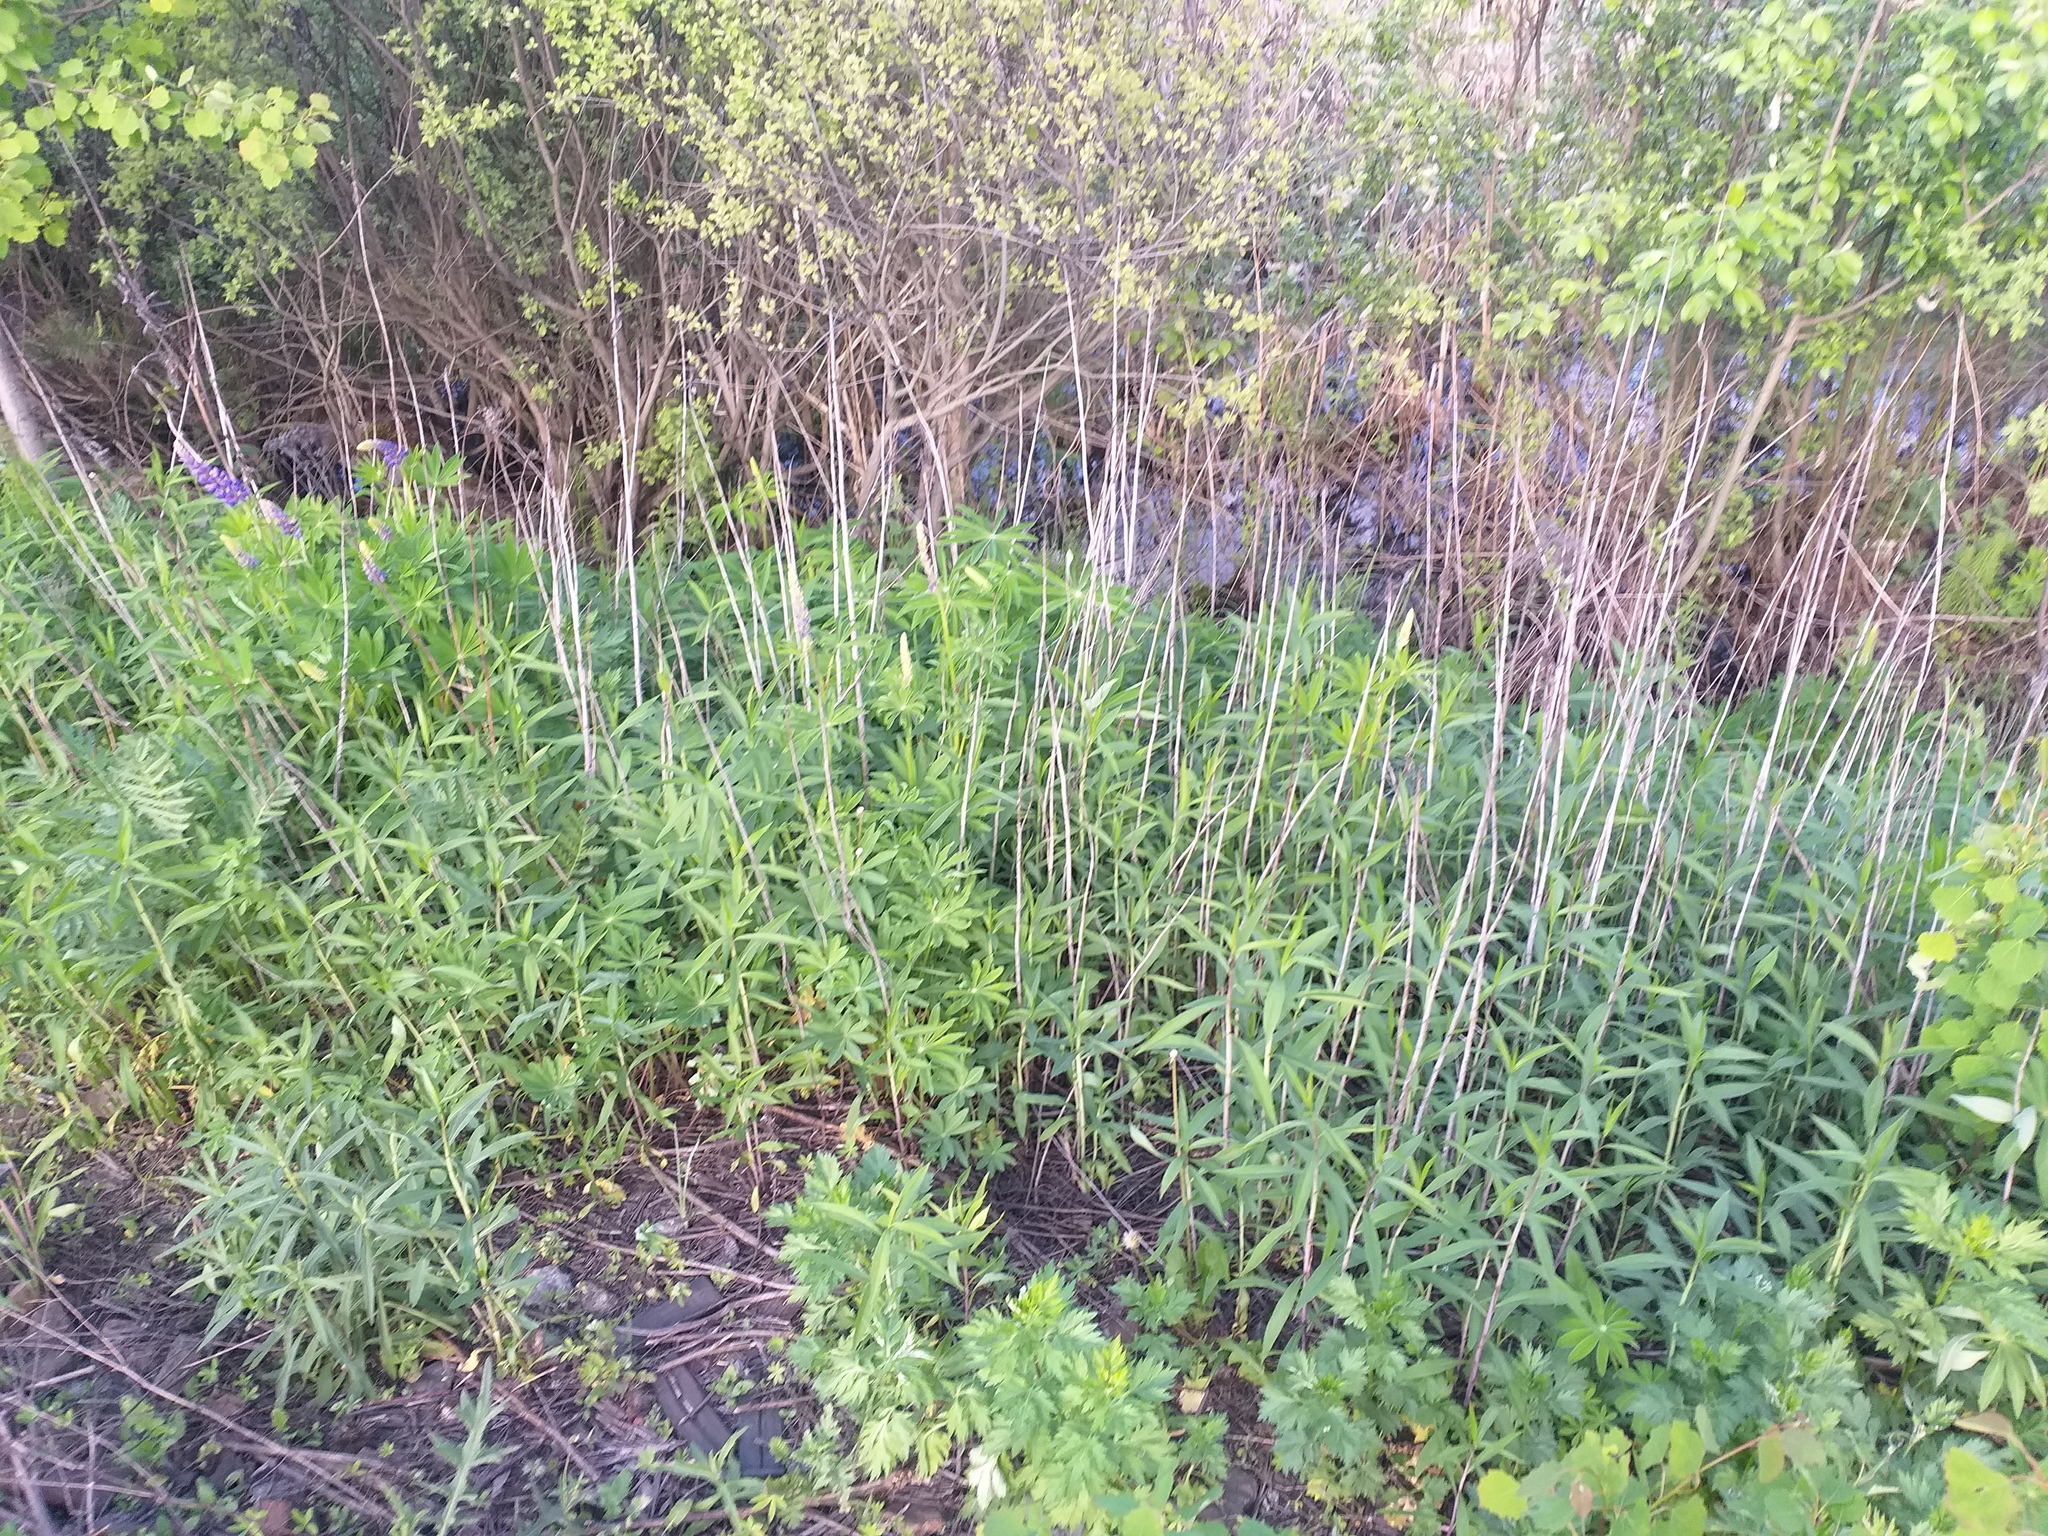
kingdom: Plantae
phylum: Tracheophyta
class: Magnoliopsida
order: Asterales
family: Asteraceae
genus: Solidago
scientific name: Solidago gigantea
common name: Giant goldenrod
